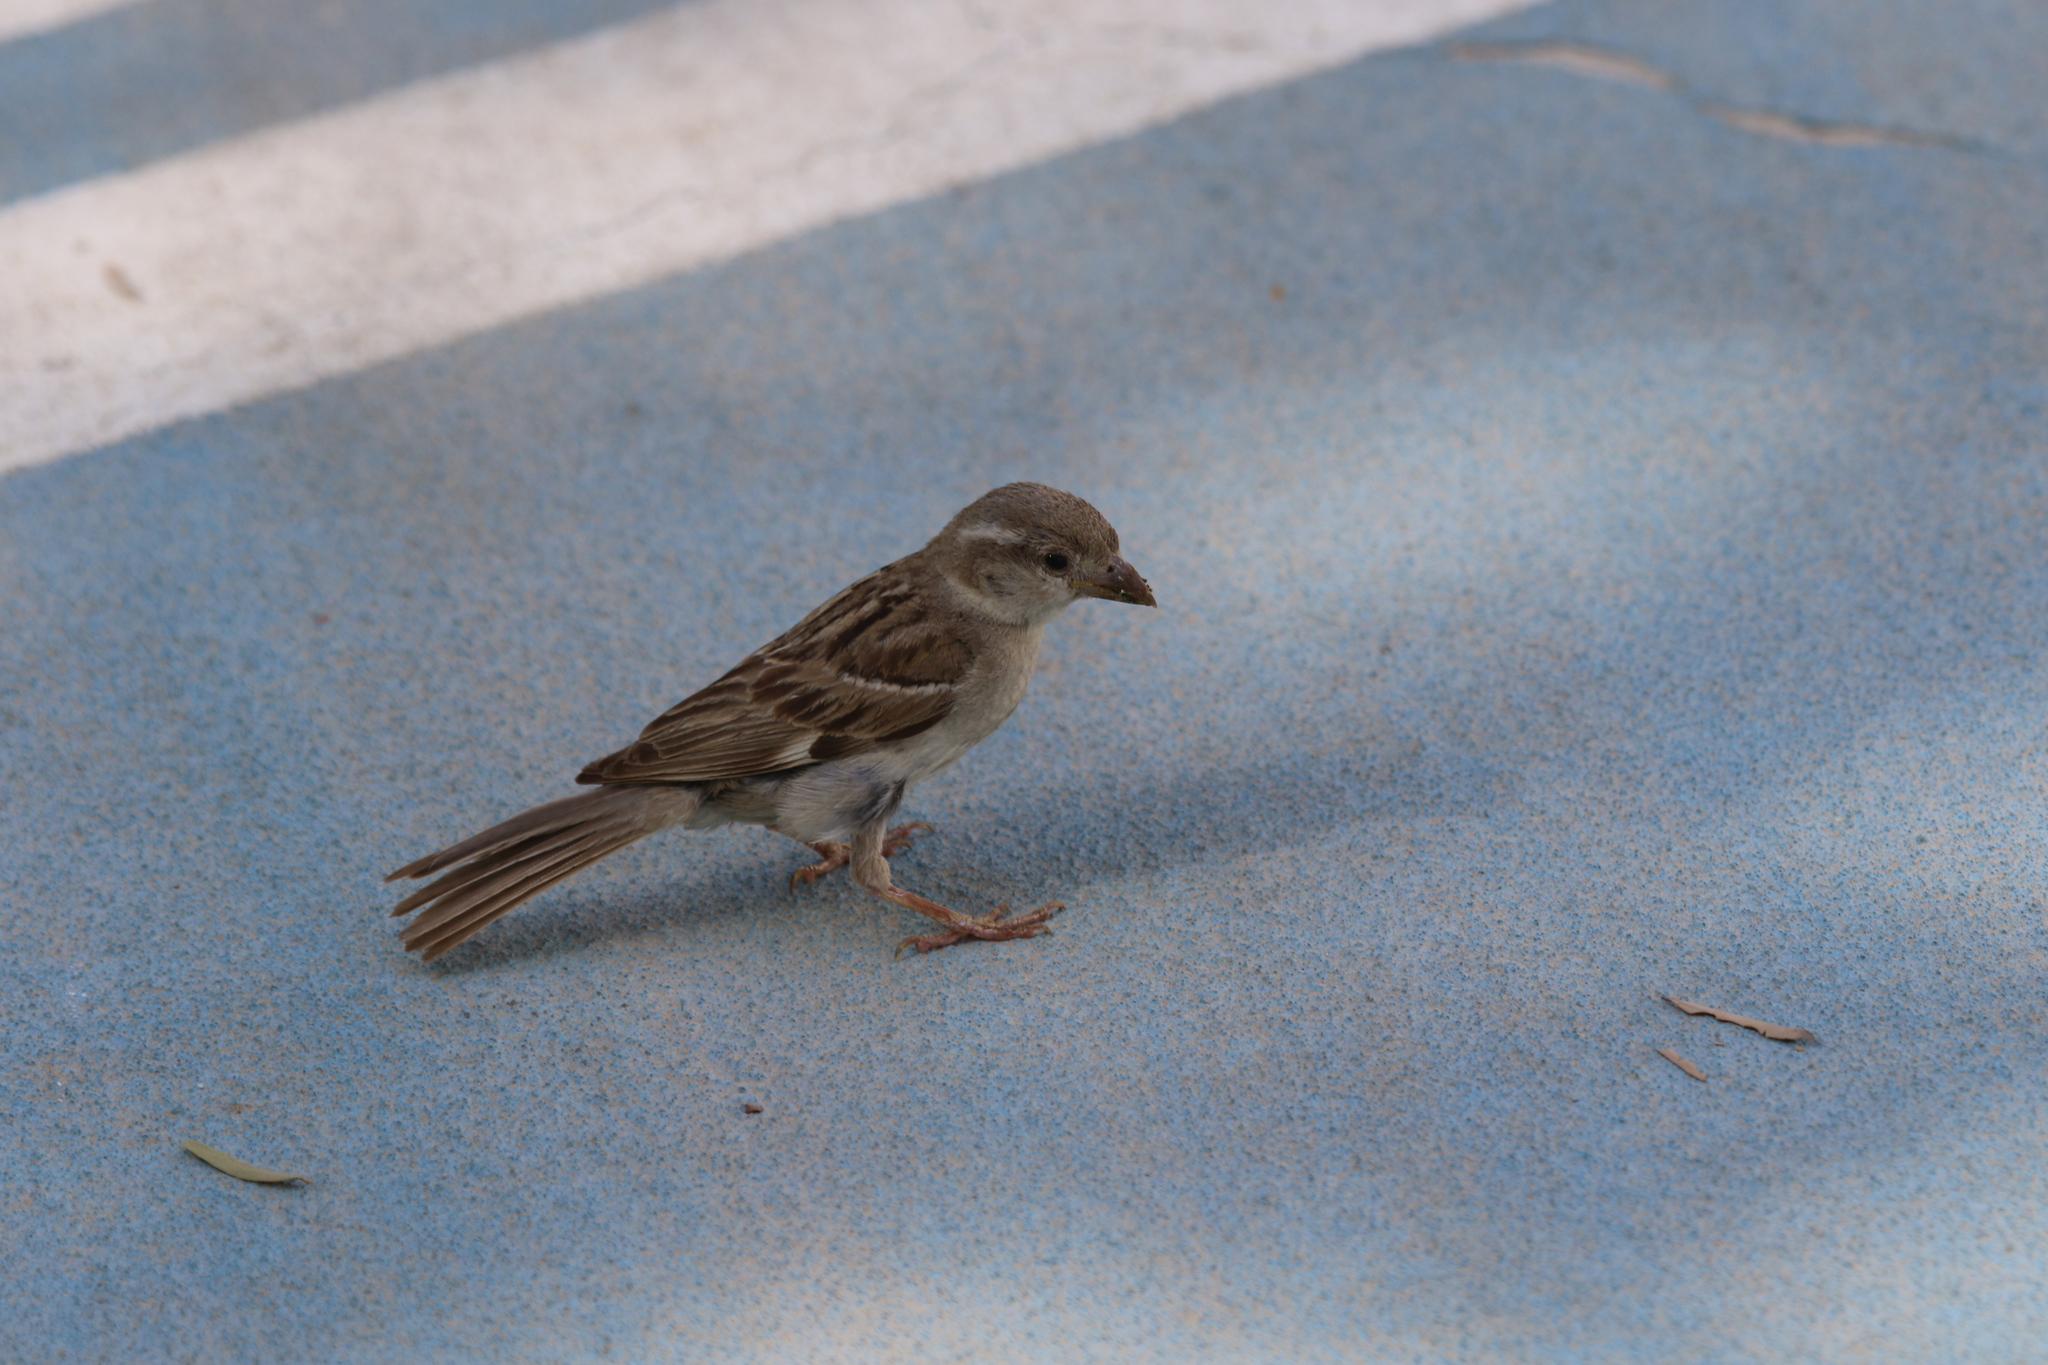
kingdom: Animalia
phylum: Chordata
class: Aves
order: Passeriformes
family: Passeridae
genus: Passer
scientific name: Passer domesticus
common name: House sparrow
